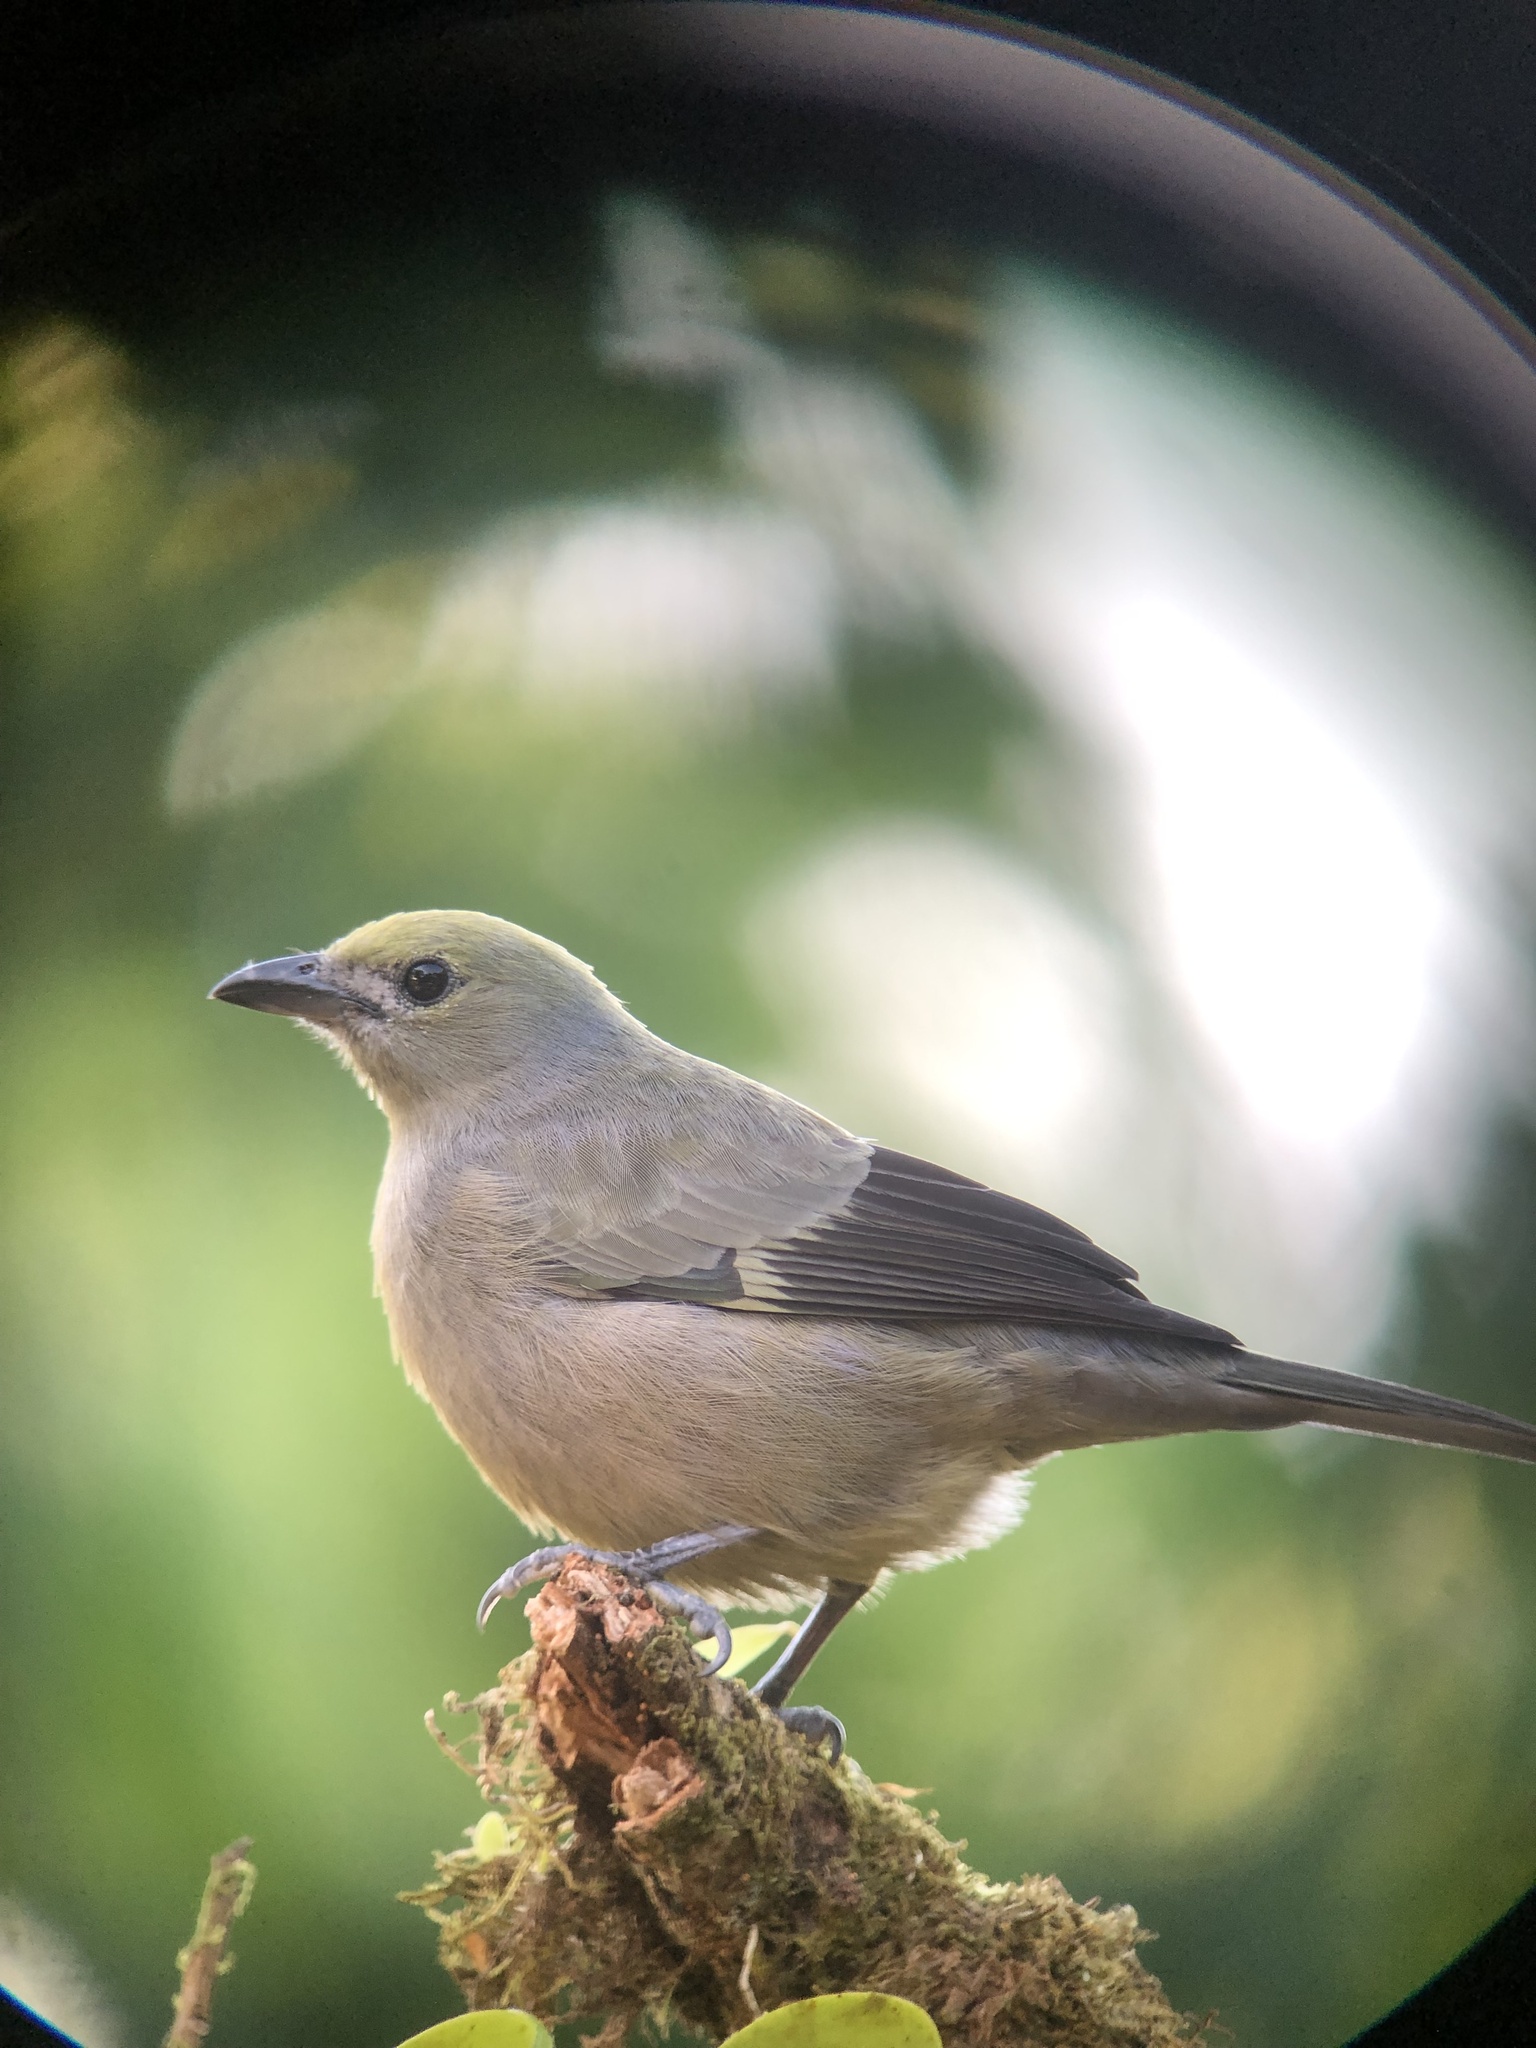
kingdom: Animalia
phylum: Chordata
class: Aves
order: Passeriformes
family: Thraupidae
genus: Thraupis
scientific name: Thraupis palmarum
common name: Palm tanager
